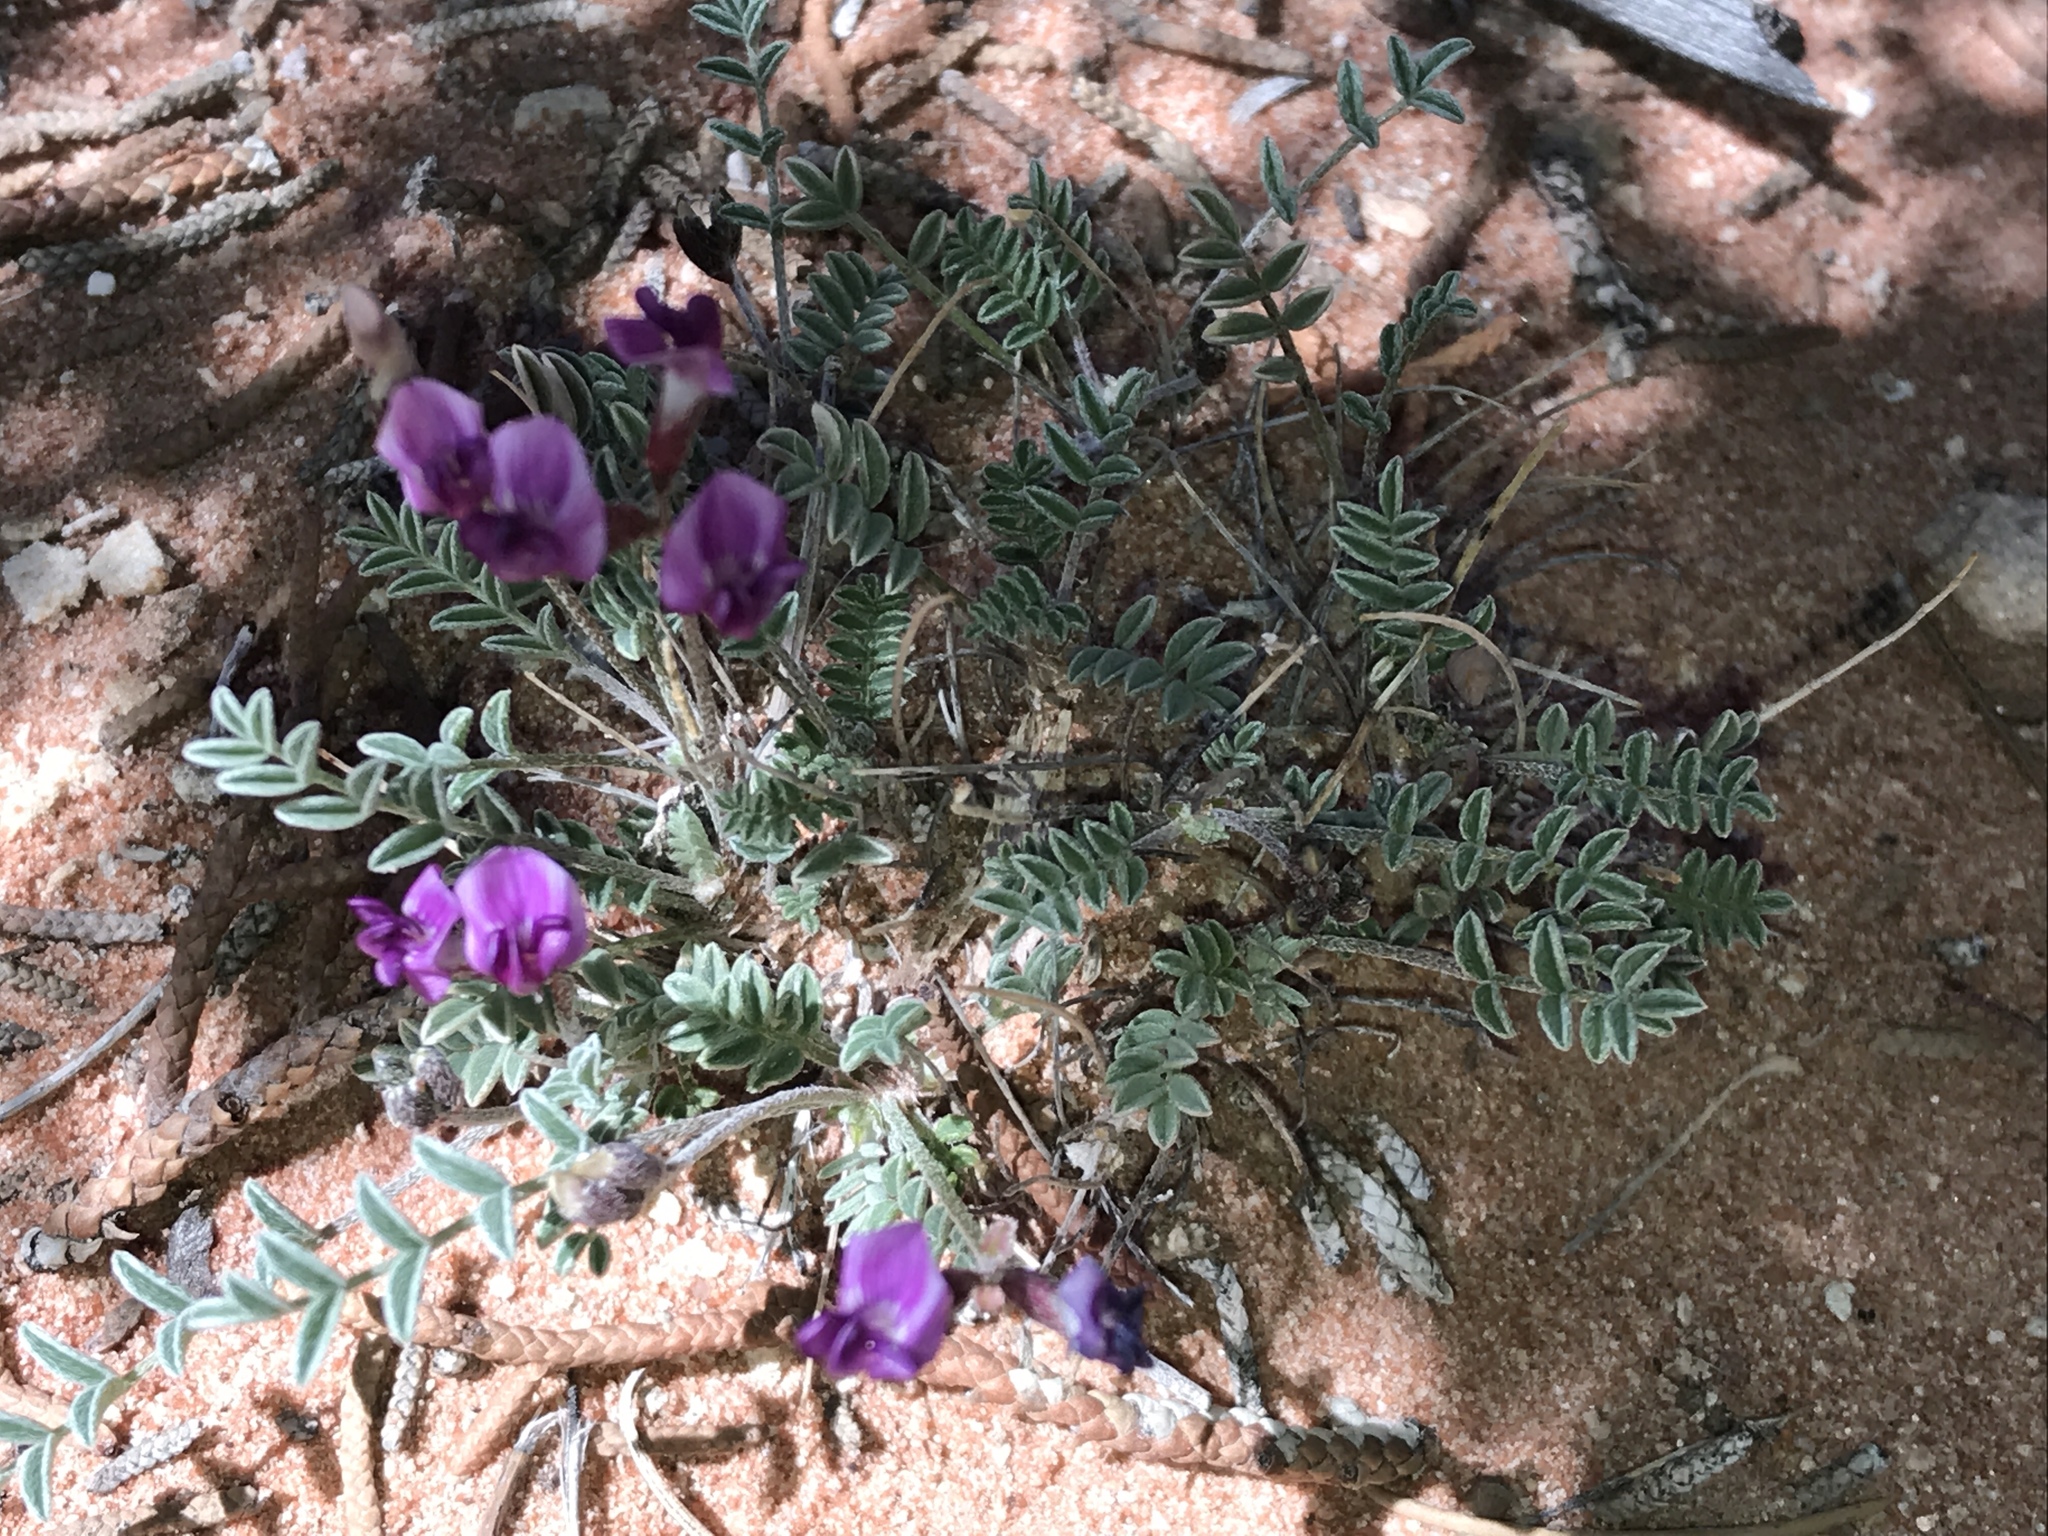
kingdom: Plantae
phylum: Tracheophyta
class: Magnoliopsida
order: Fabales
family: Fabaceae
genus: Astragalus
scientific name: Astragalus desperatus
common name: Rimrock milk-vetch
